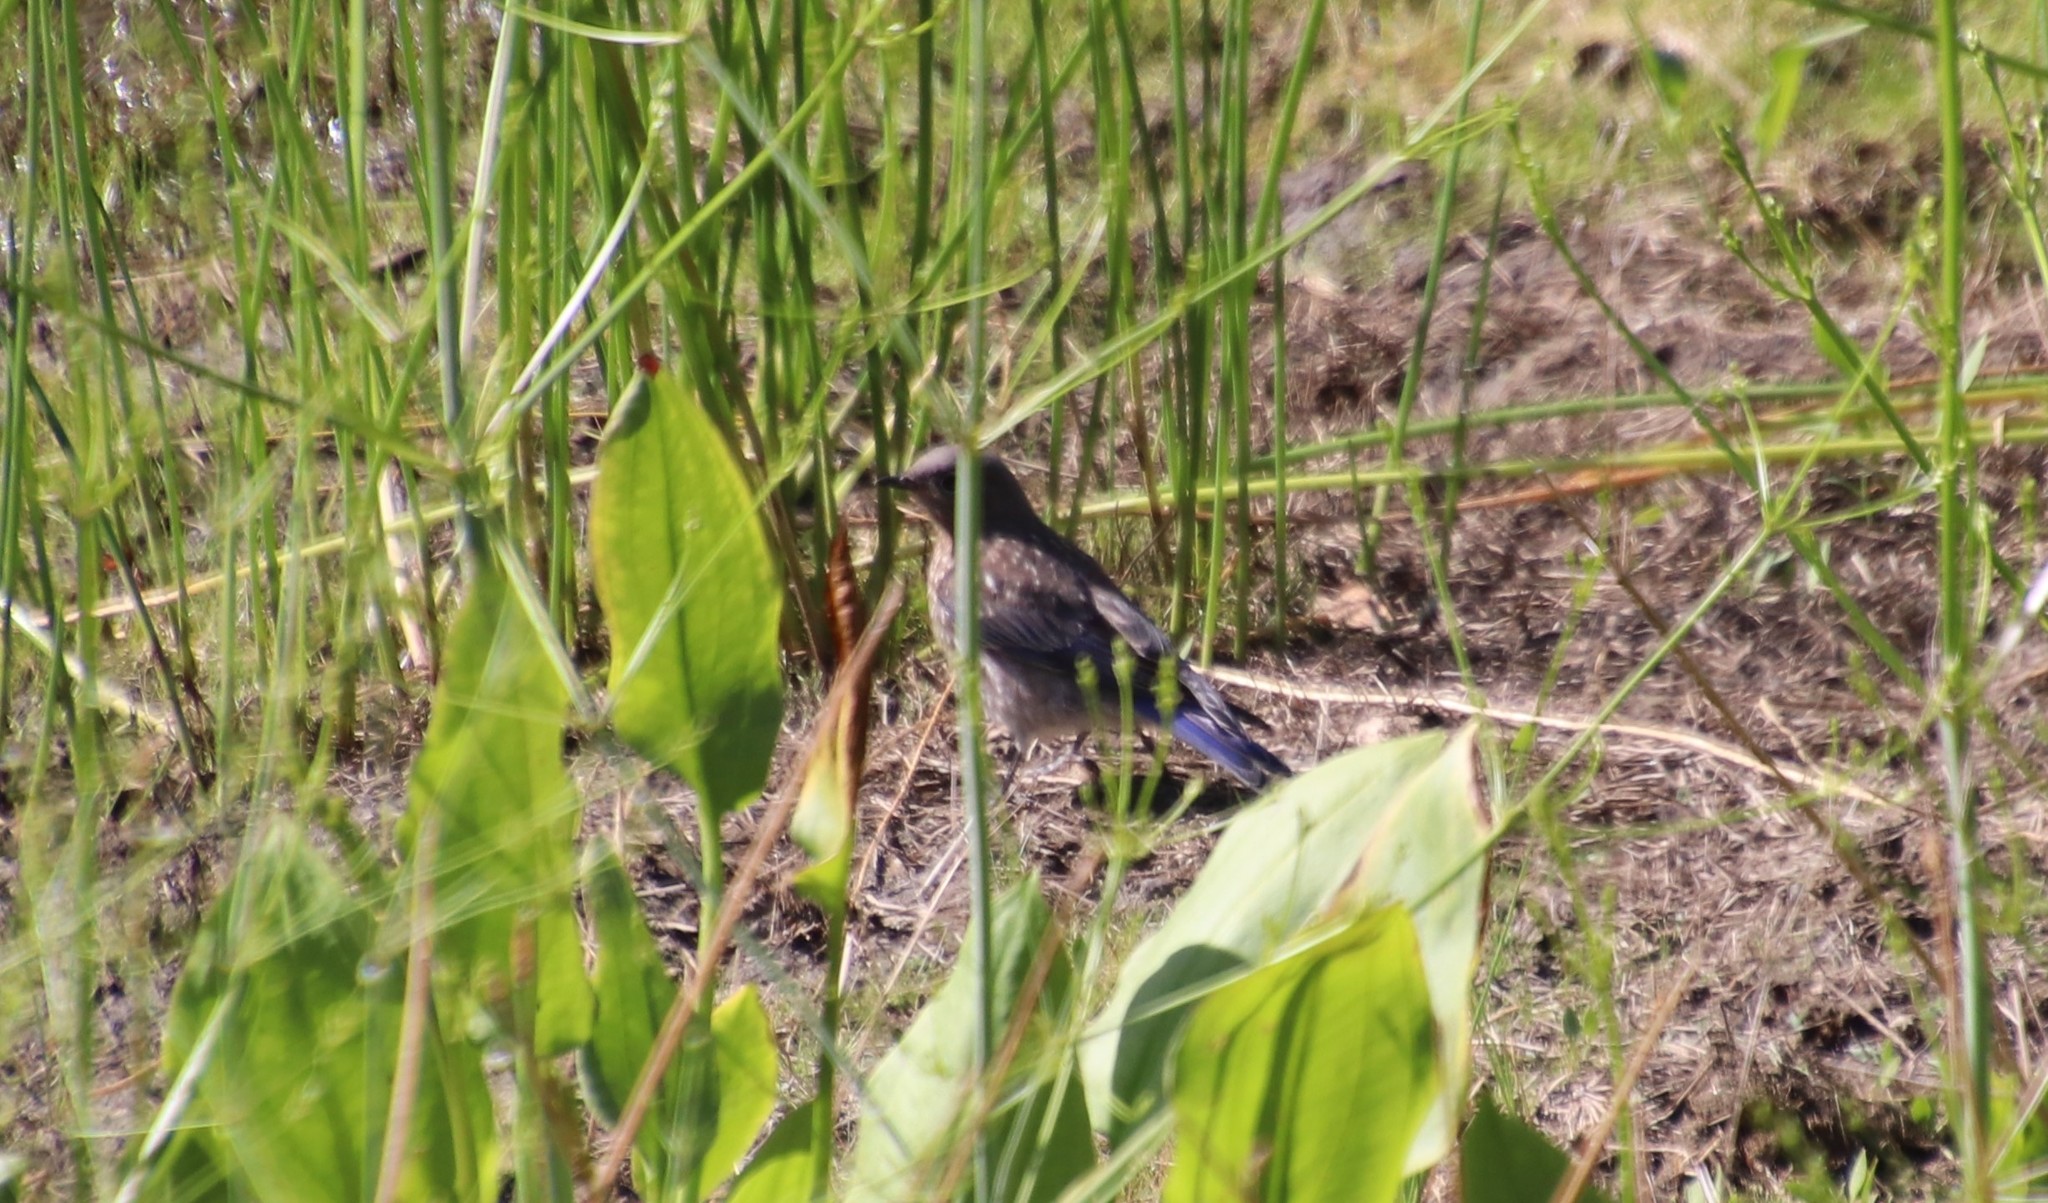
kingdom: Animalia
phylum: Chordata
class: Aves
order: Passeriformes
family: Turdidae
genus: Sialia
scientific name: Sialia mexicana
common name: Western bluebird
